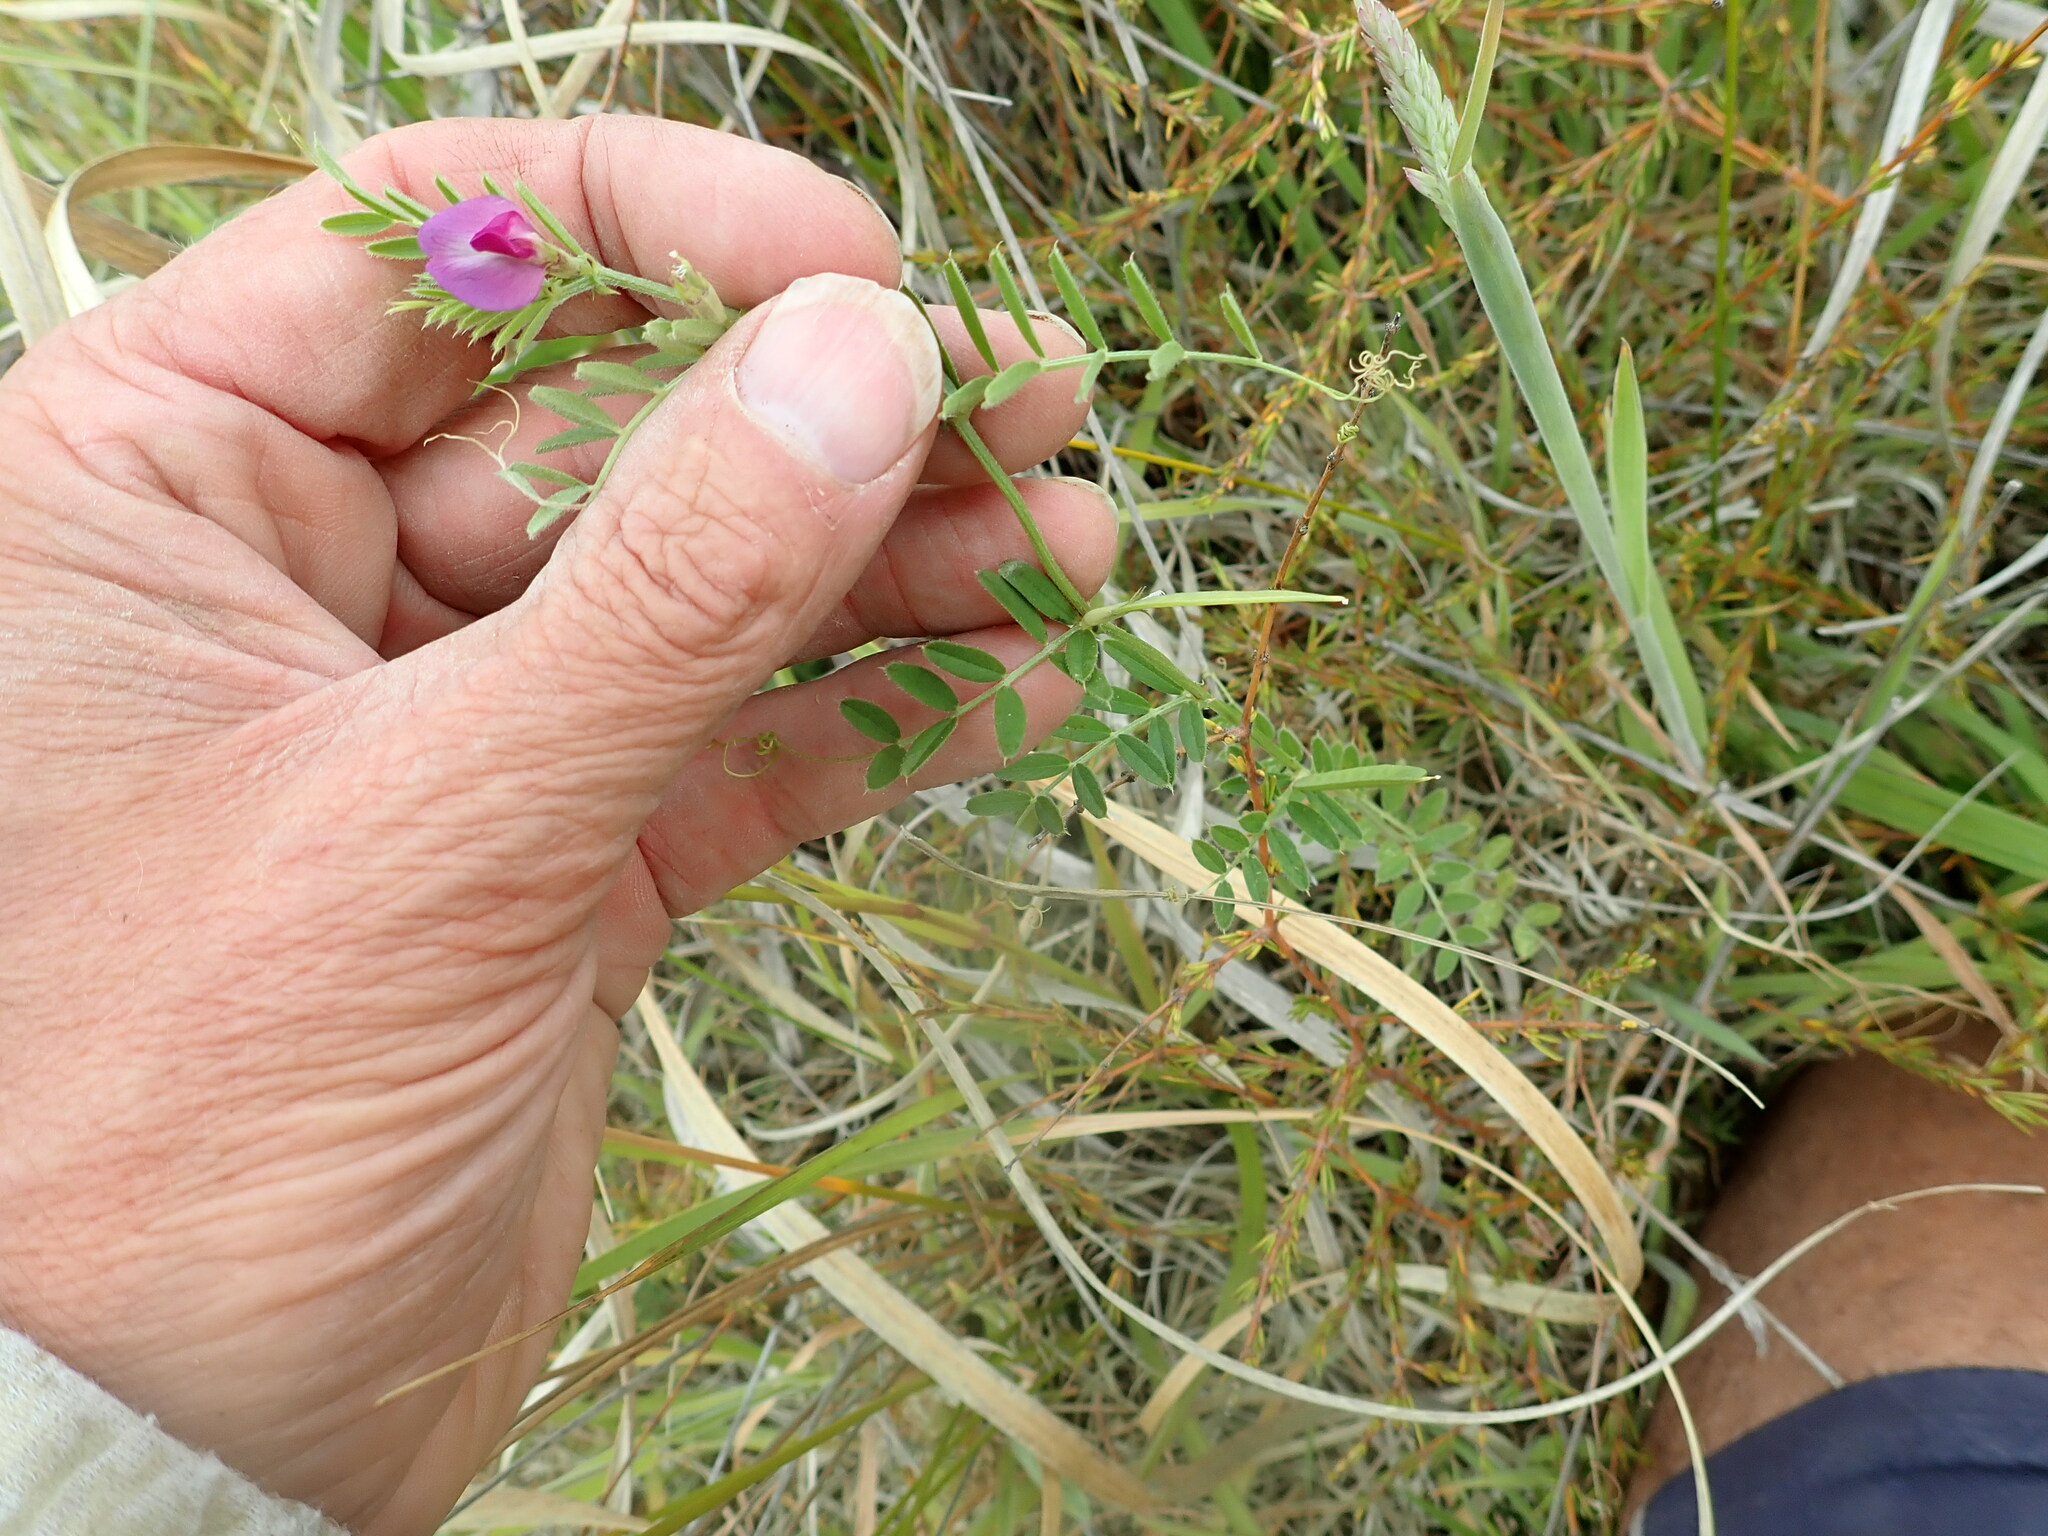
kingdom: Plantae
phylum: Tracheophyta
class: Magnoliopsida
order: Fabales
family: Fabaceae
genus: Vicia
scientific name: Vicia sativa
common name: Garden vetch
